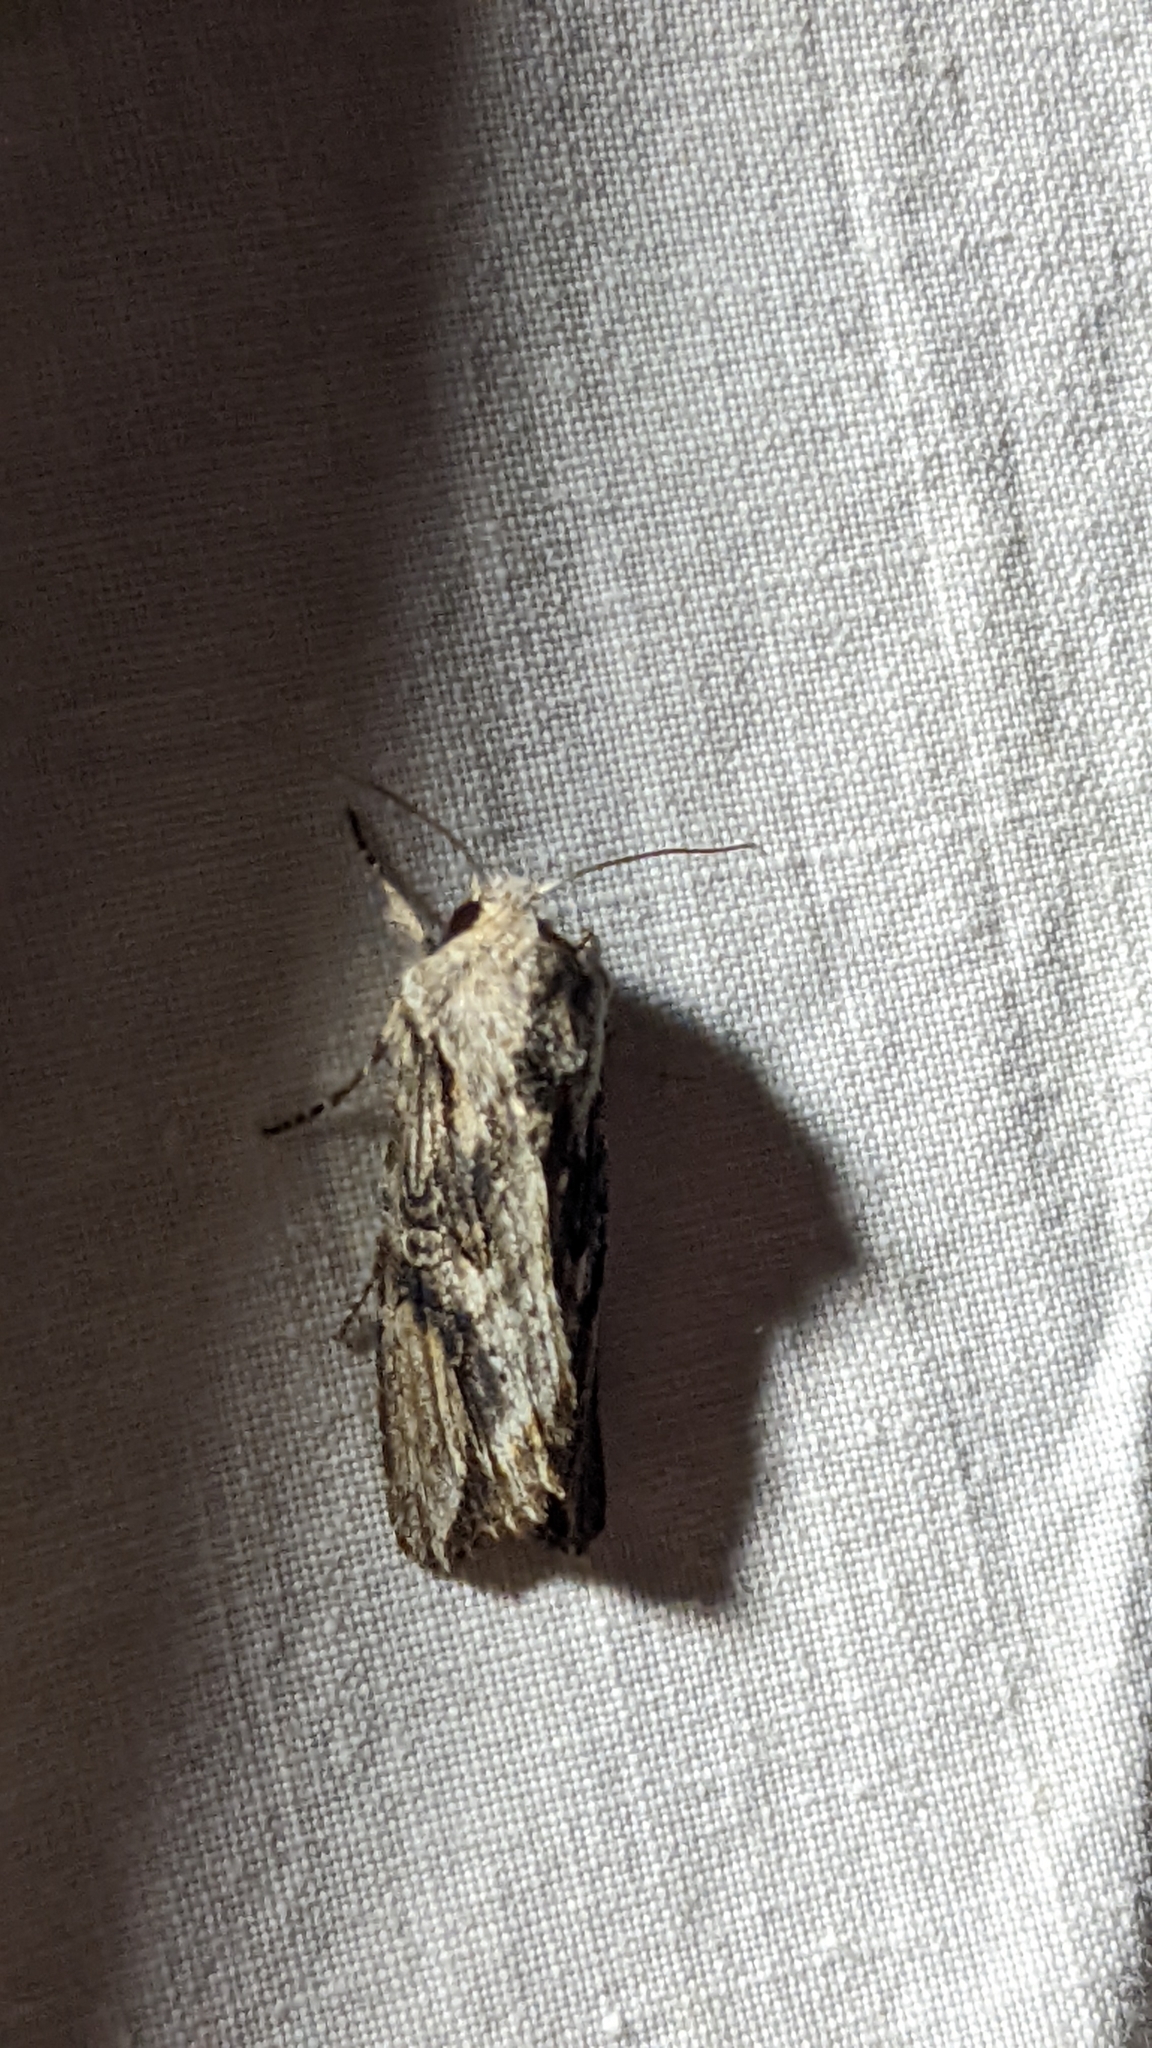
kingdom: Animalia
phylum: Arthropoda
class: Insecta
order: Lepidoptera
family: Noctuidae
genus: Egira
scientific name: Egira conspicillaris
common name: Silver cloud
